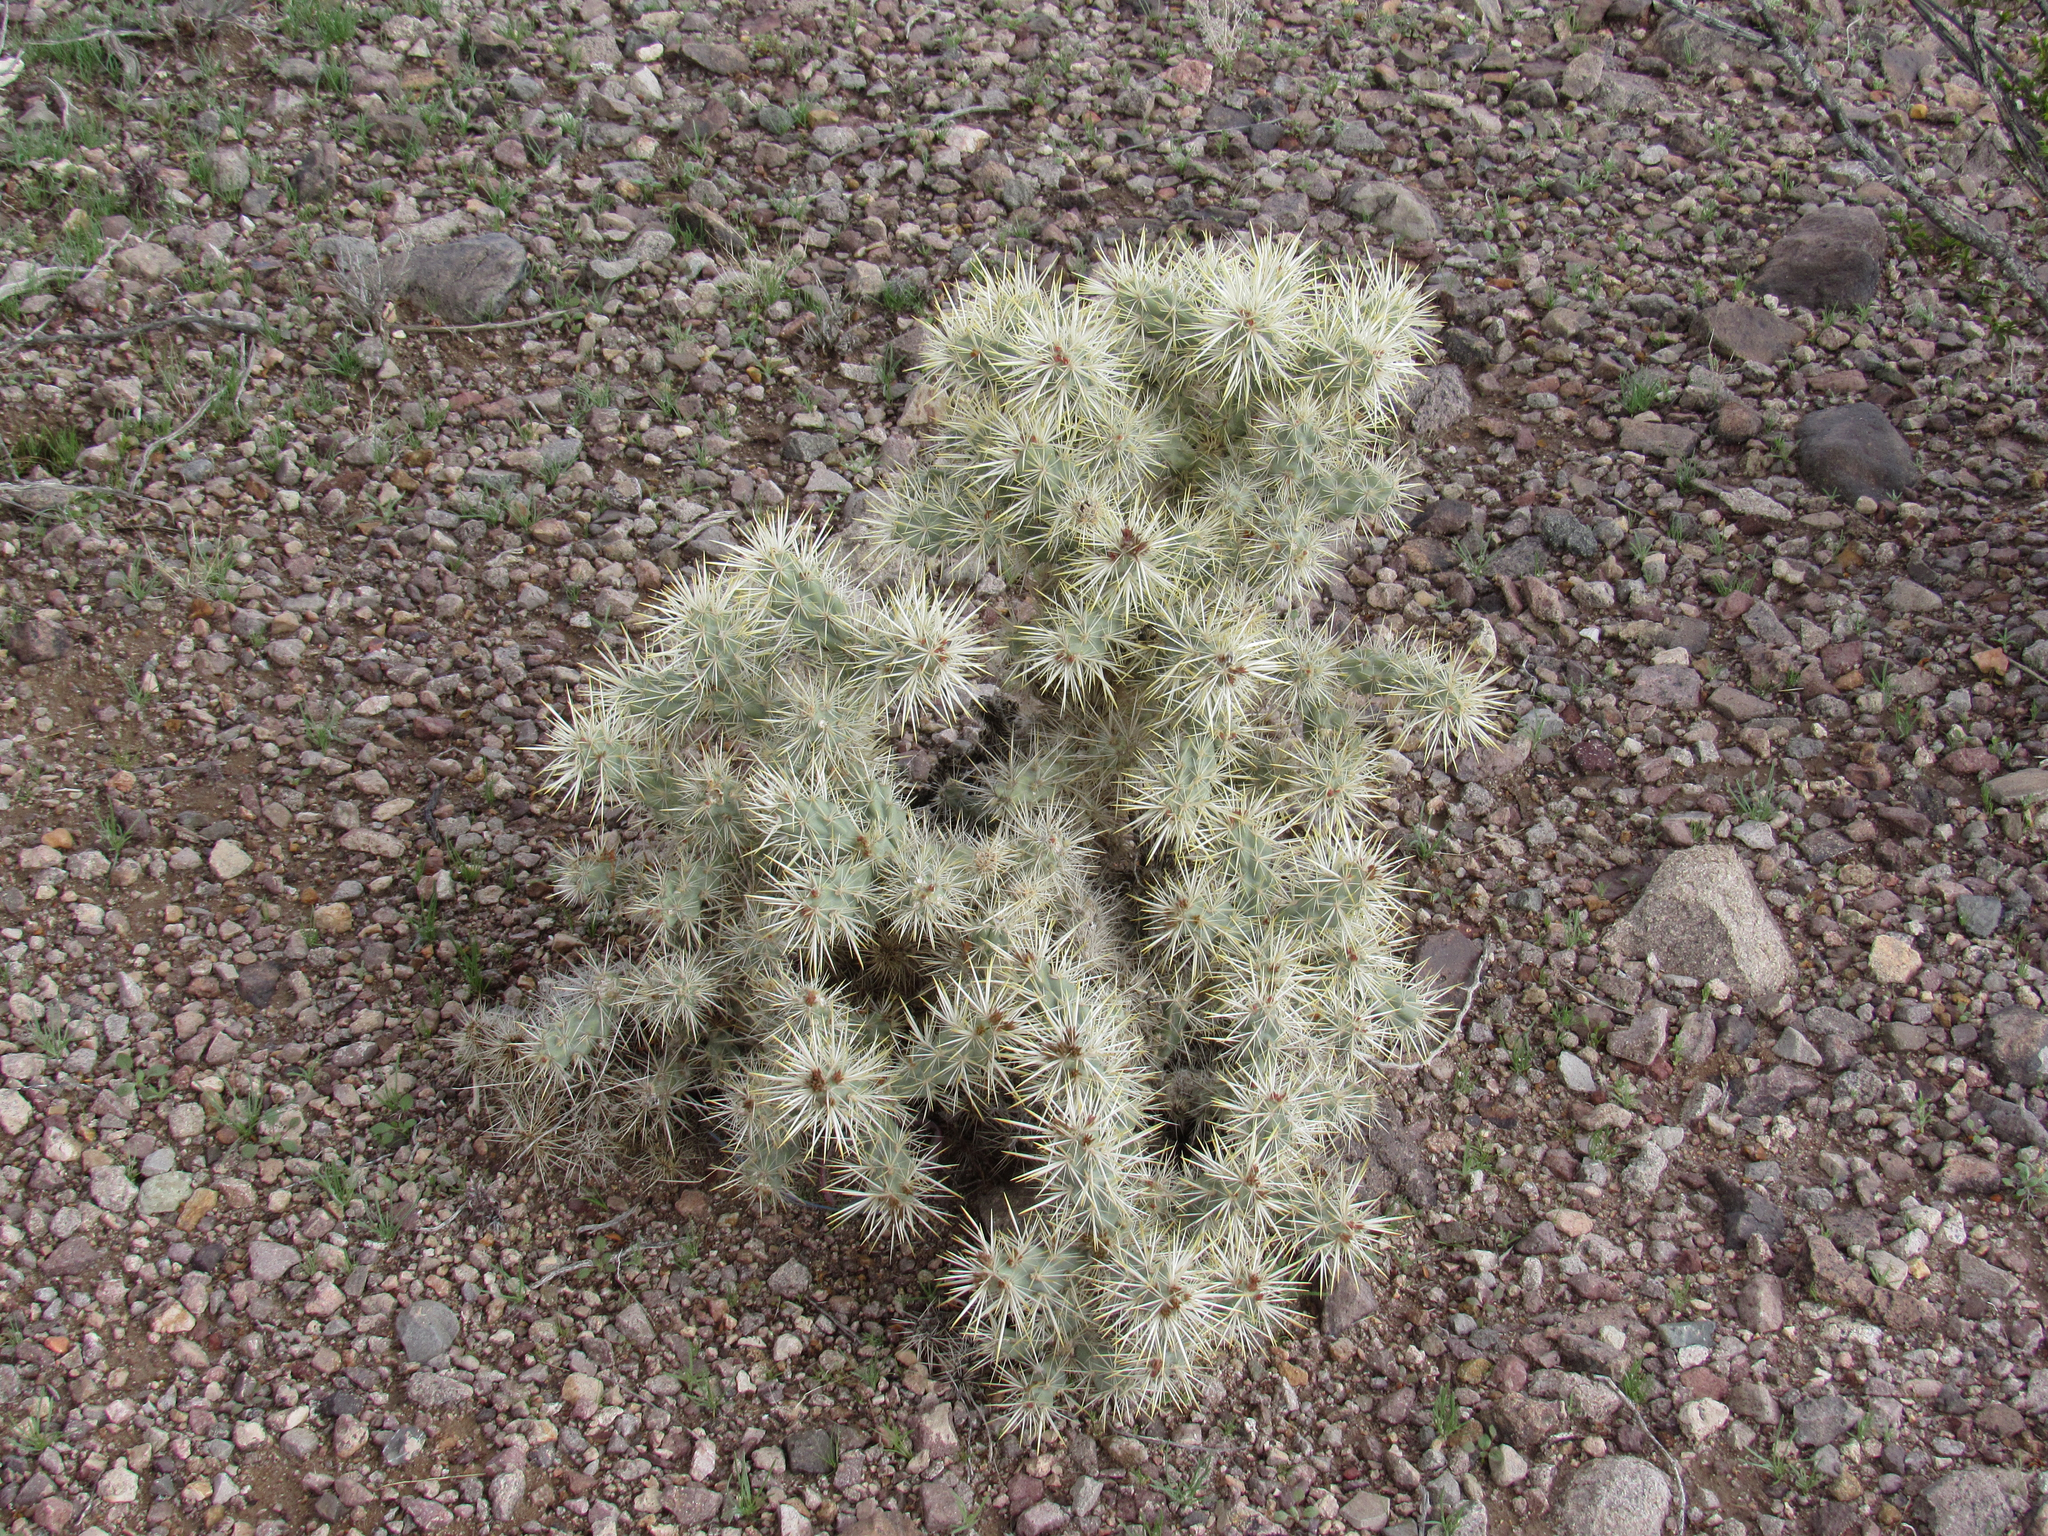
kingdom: Plantae
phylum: Tracheophyta
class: Magnoliopsida
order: Caryophyllales
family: Cactaceae
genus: Cylindropuntia
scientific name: Cylindropuntia echinocarpa
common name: Ground cholla
